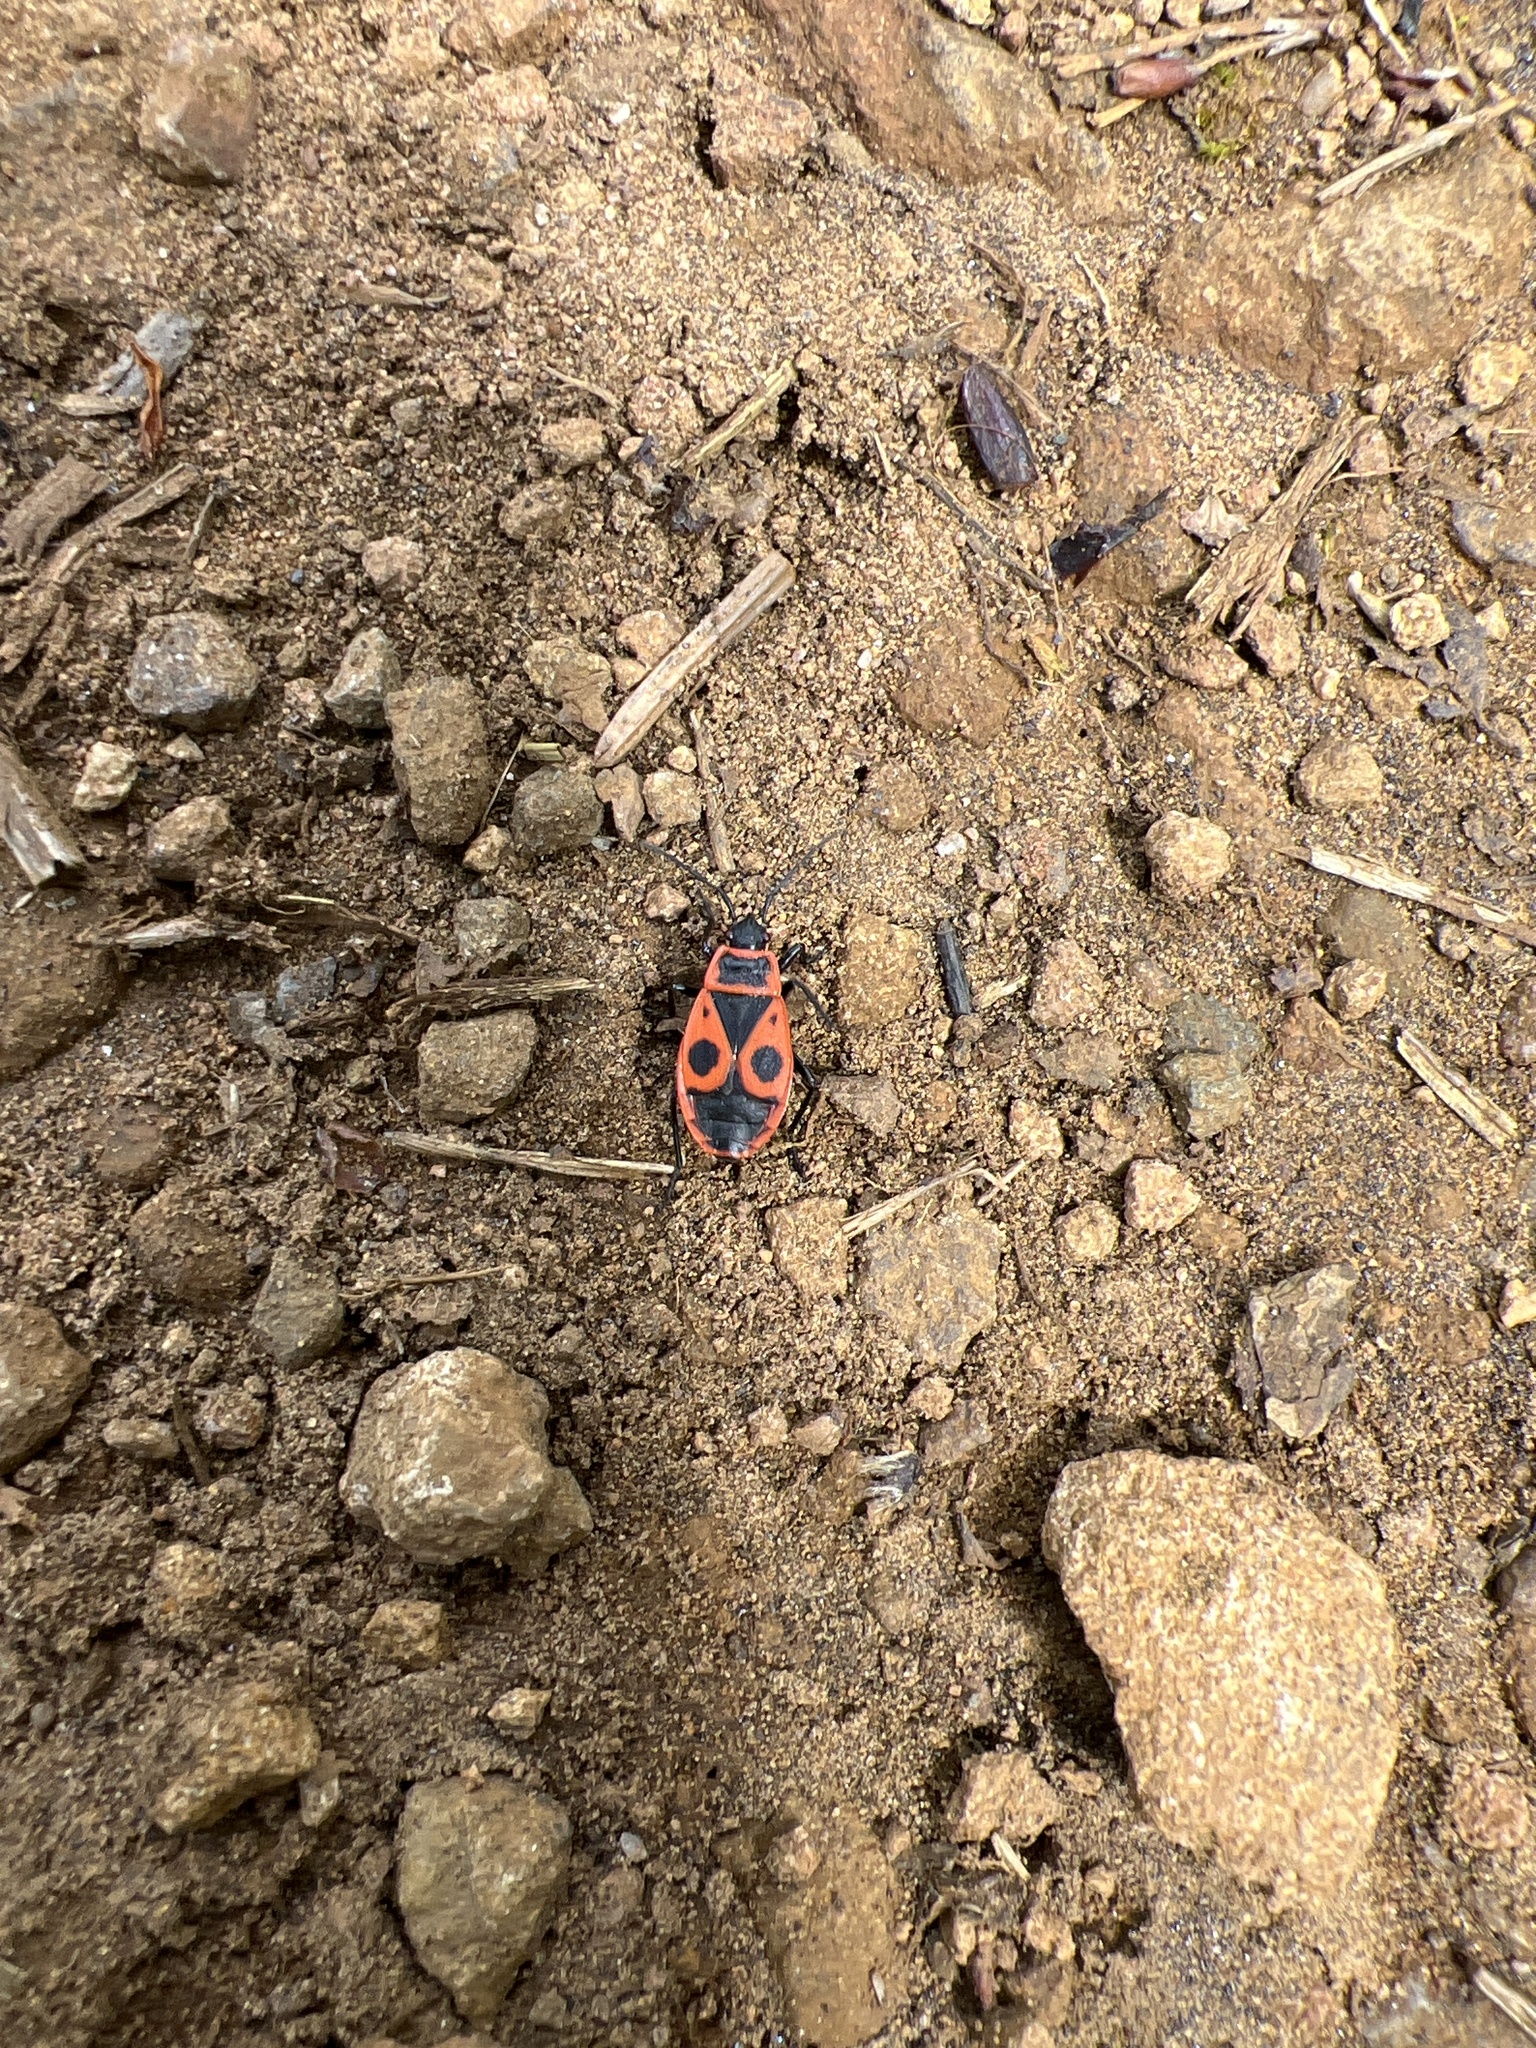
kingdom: Animalia
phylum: Arthropoda
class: Insecta
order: Hemiptera
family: Pyrrhocoridae
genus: Pyrrhocoris
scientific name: Pyrrhocoris apterus
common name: Firebug
